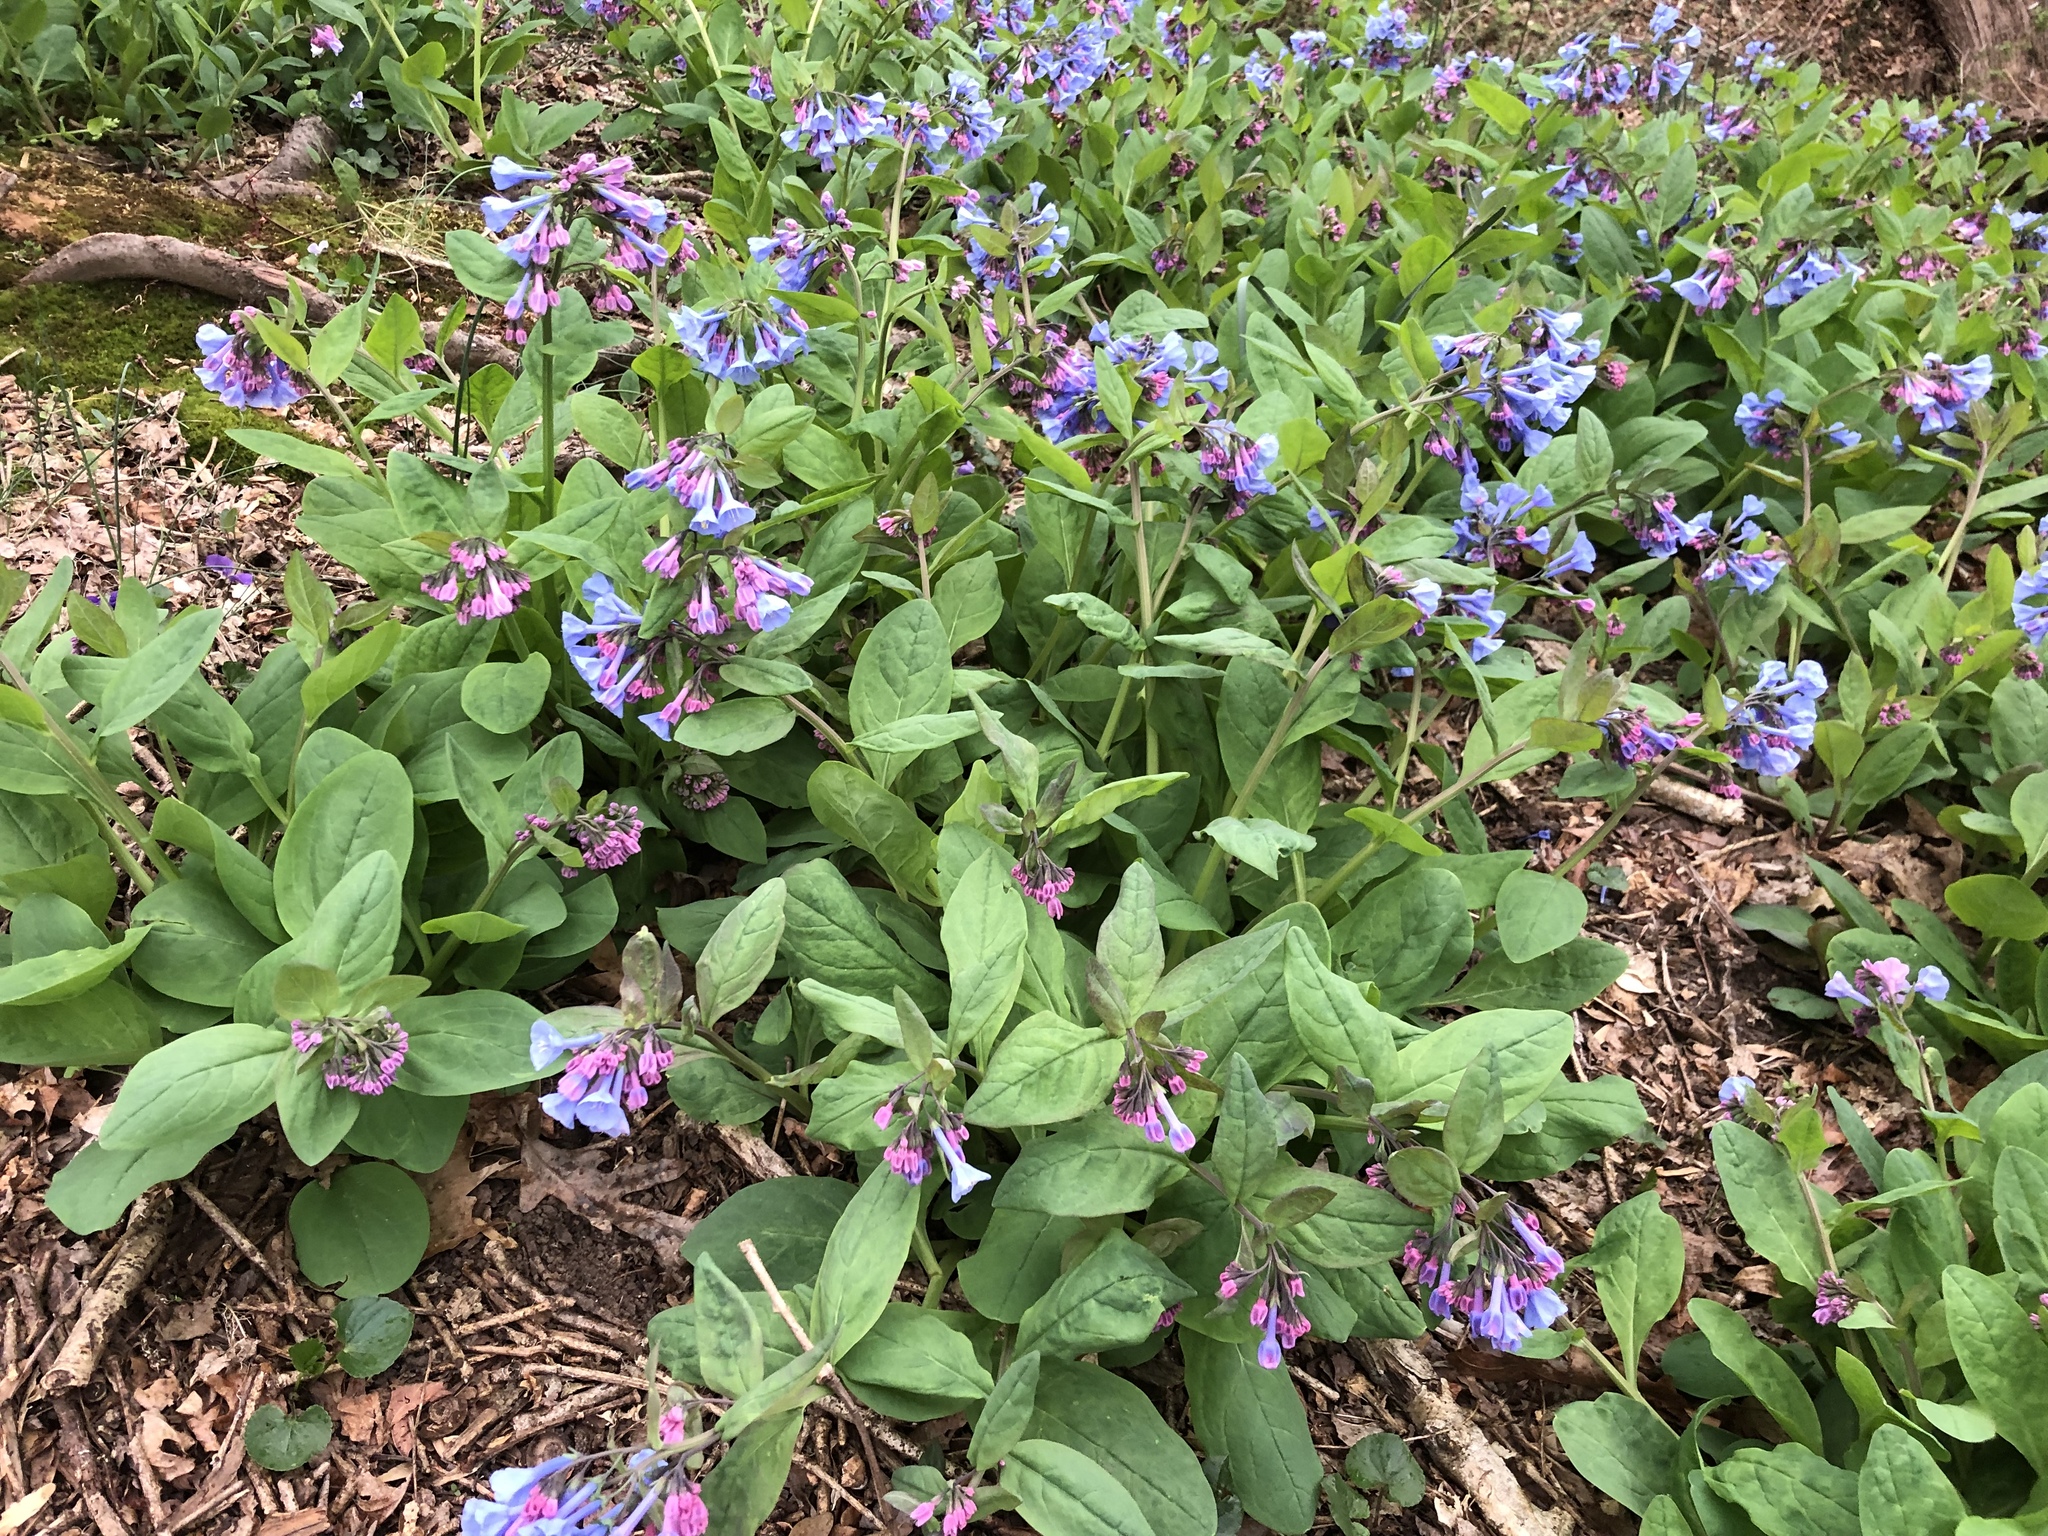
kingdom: Plantae
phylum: Tracheophyta
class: Magnoliopsida
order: Boraginales
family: Boraginaceae
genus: Mertensia
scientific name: Mertensia virginica
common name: Virginia bluebells
